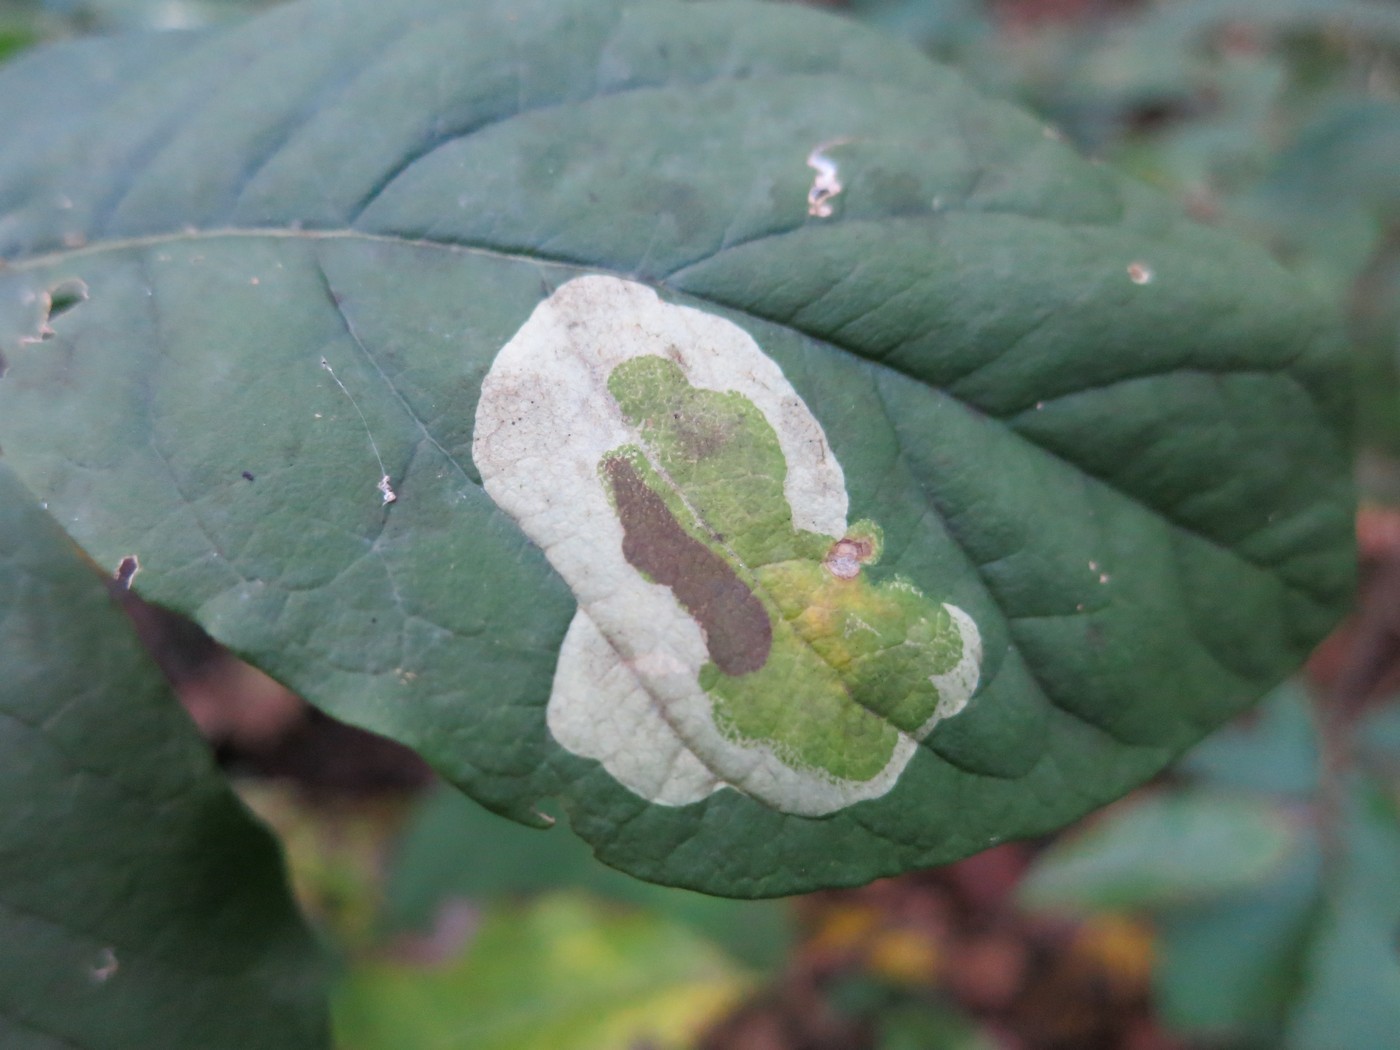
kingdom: Animalia
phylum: Arthropoda
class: Insecta
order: Lepidoptera
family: Gracillariidae
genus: Leucanthiza
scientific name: Leucanthiza dircella
